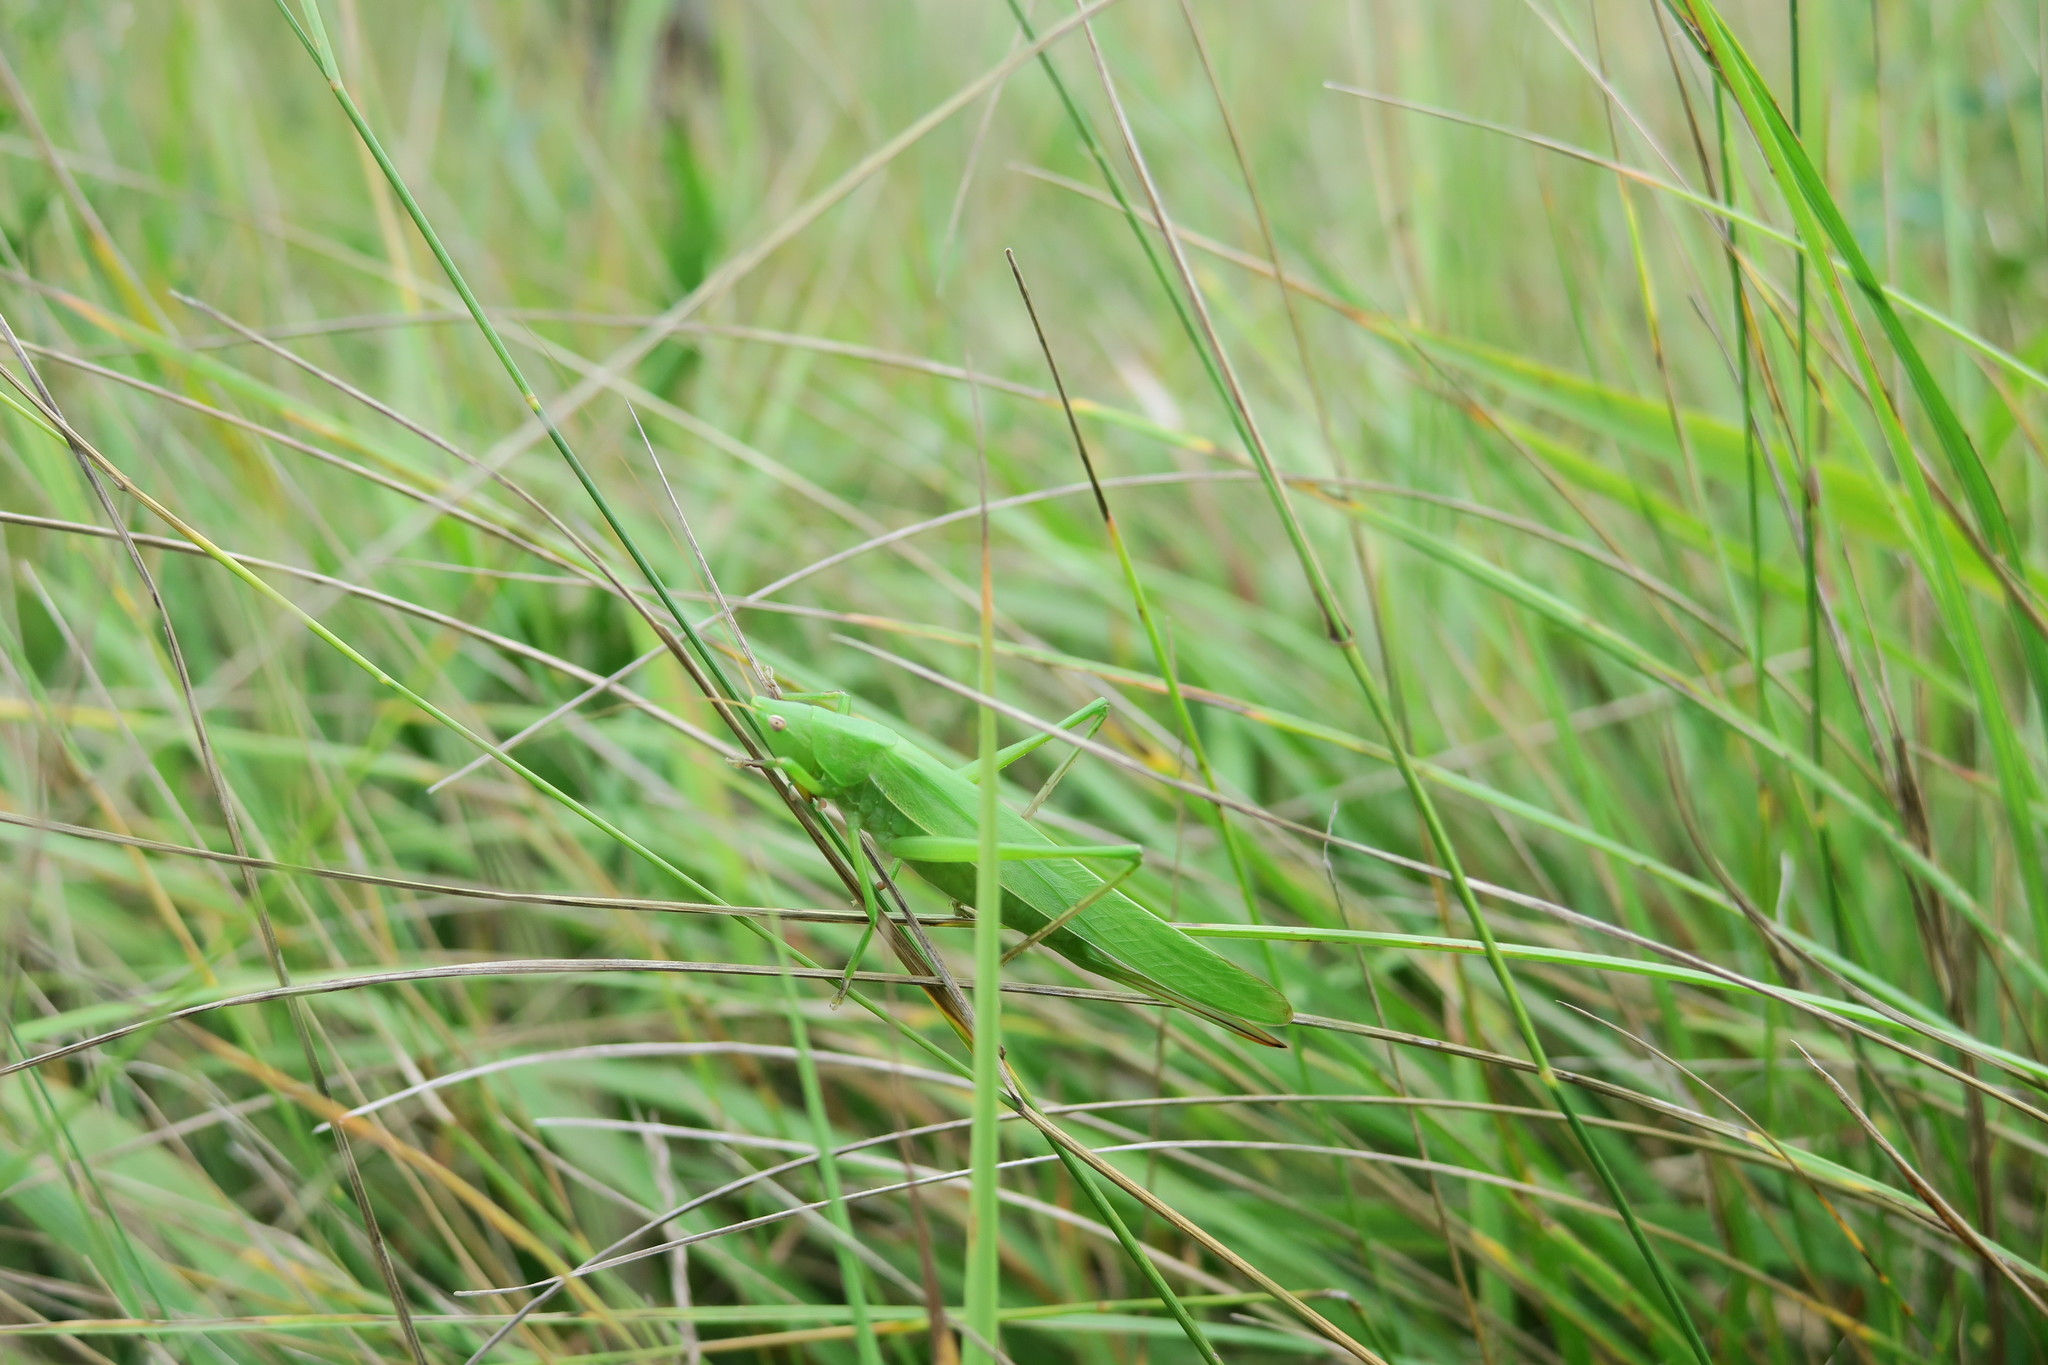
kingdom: Animalia
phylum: Arthropoda
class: Insecta
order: Orthoptera
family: Tettigoniidae
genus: Ruspolia
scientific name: Ruspolia nitidula
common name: Large conehead
